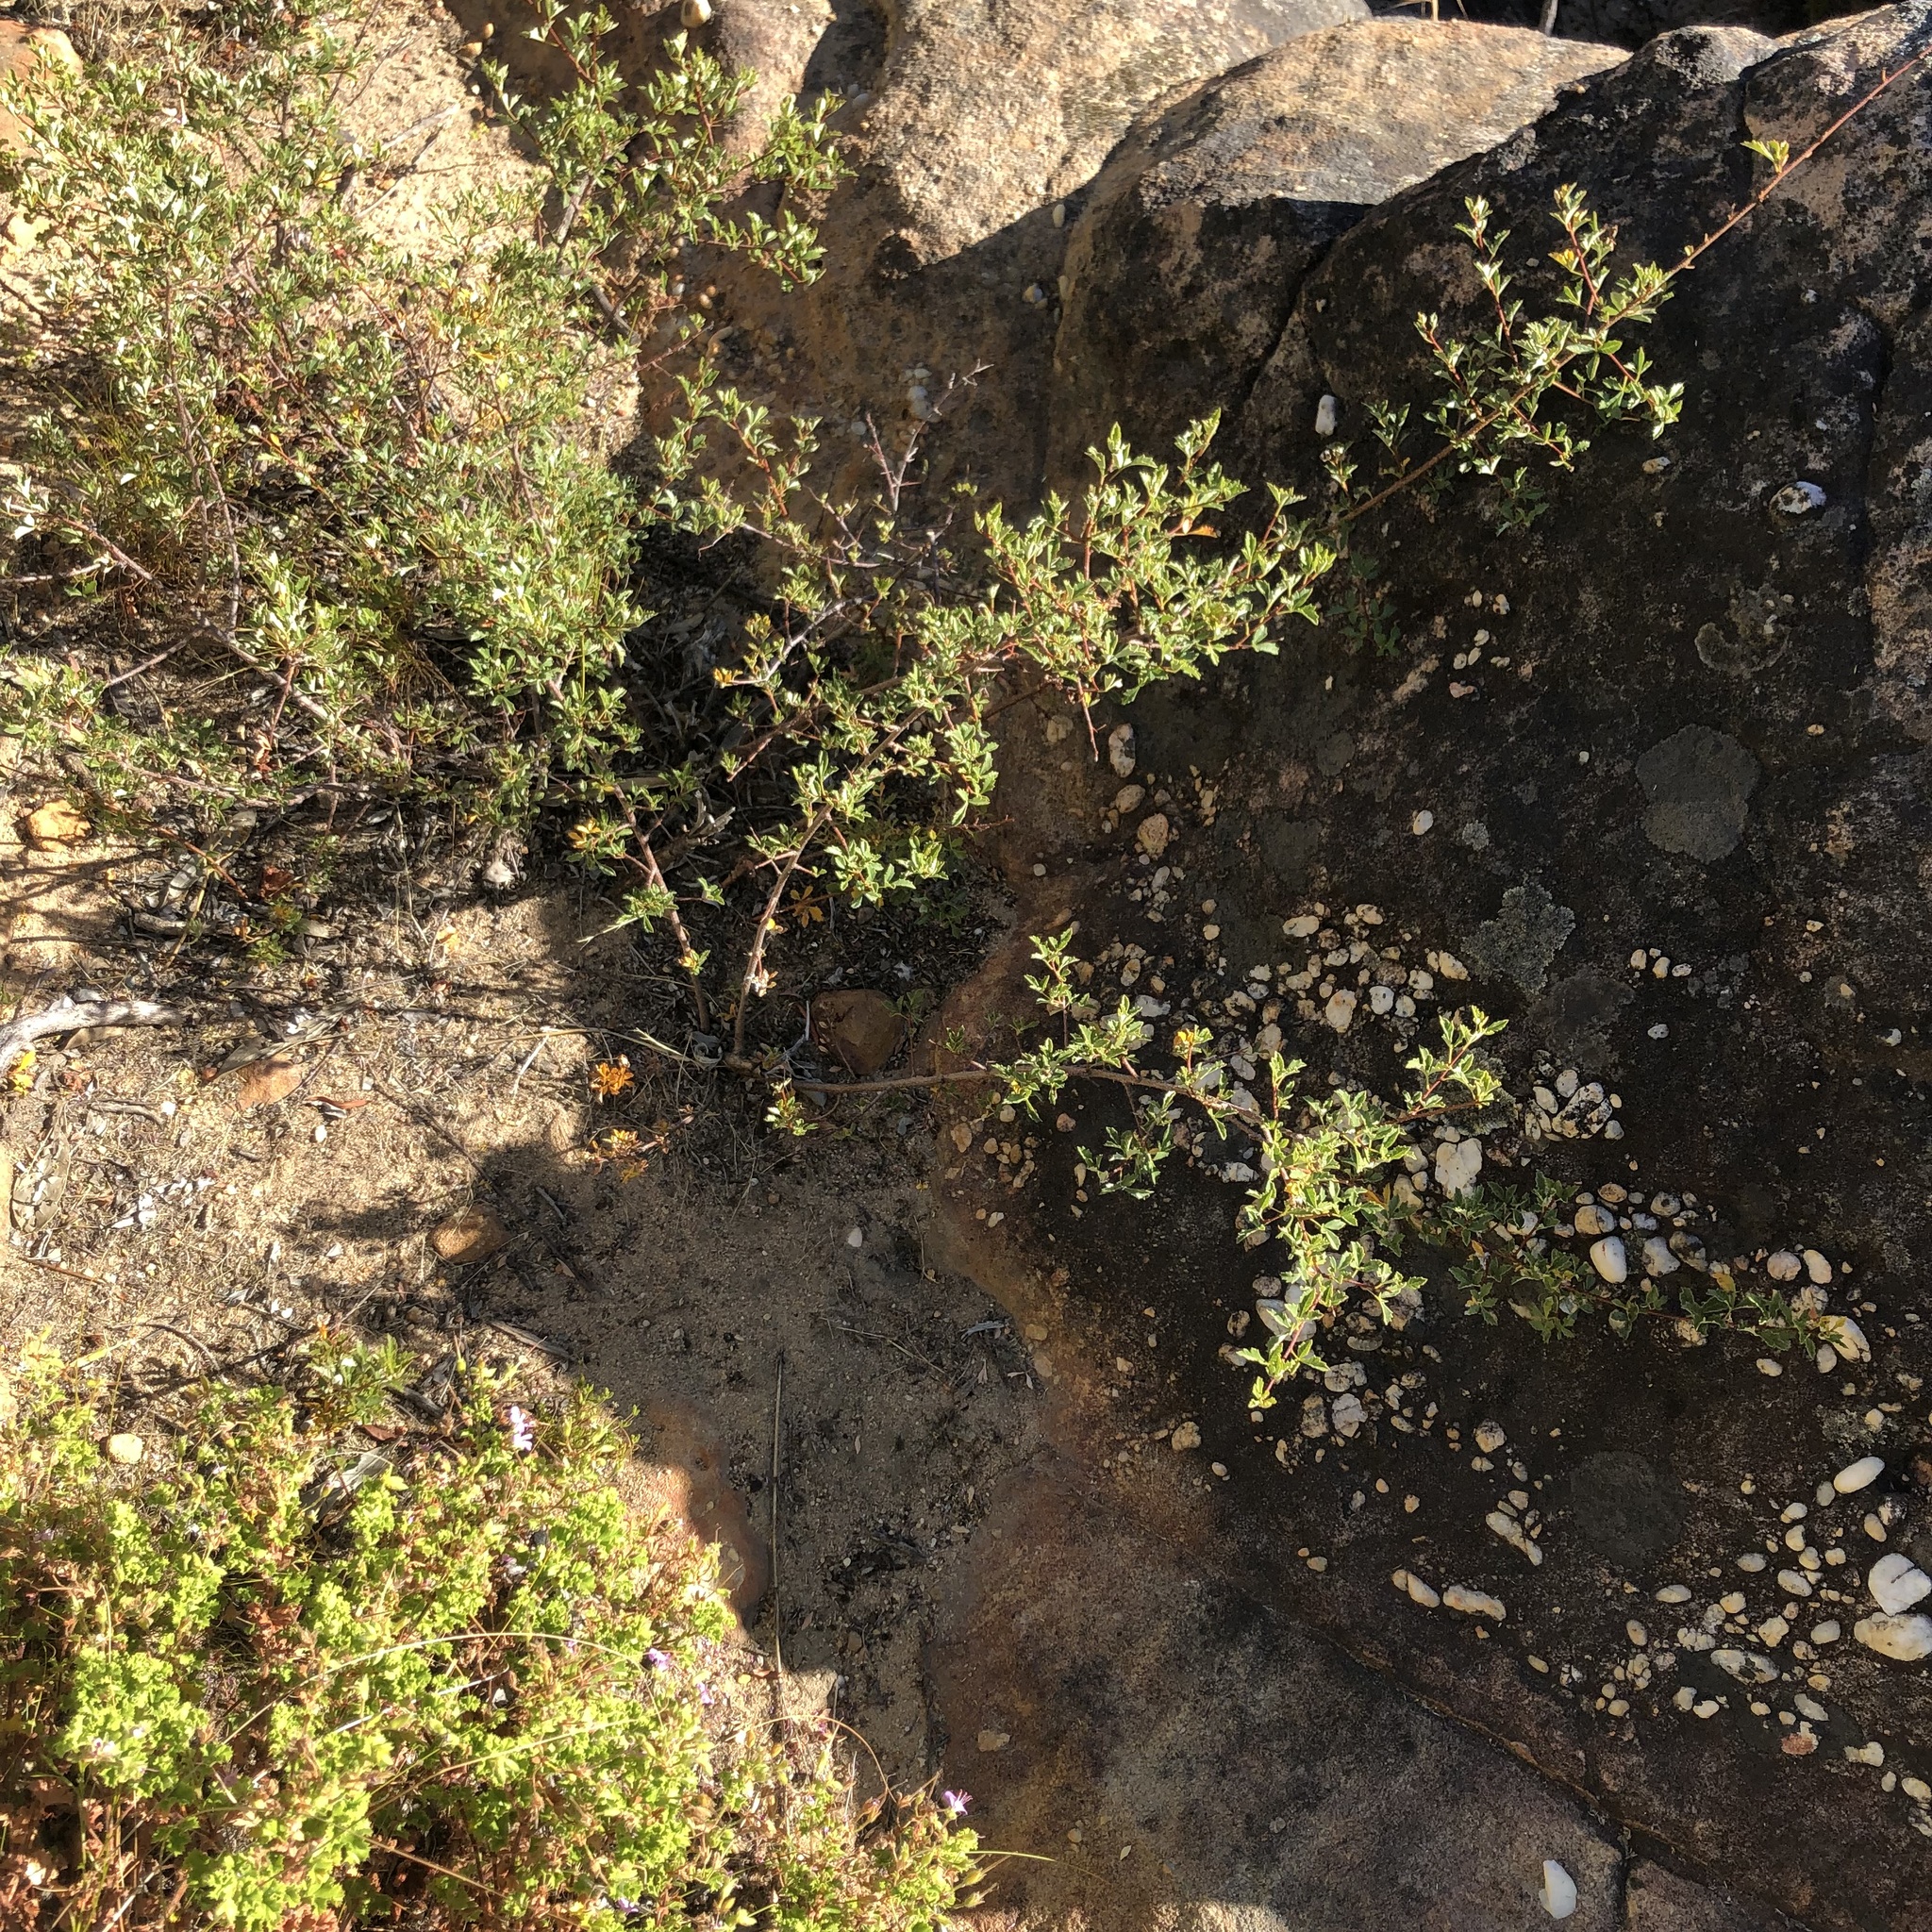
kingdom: Plantae
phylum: Tracheophyta
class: Magnoliopsida
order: Sapindales
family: Anacardiaceae
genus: Searsia
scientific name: Searsia dissecta
